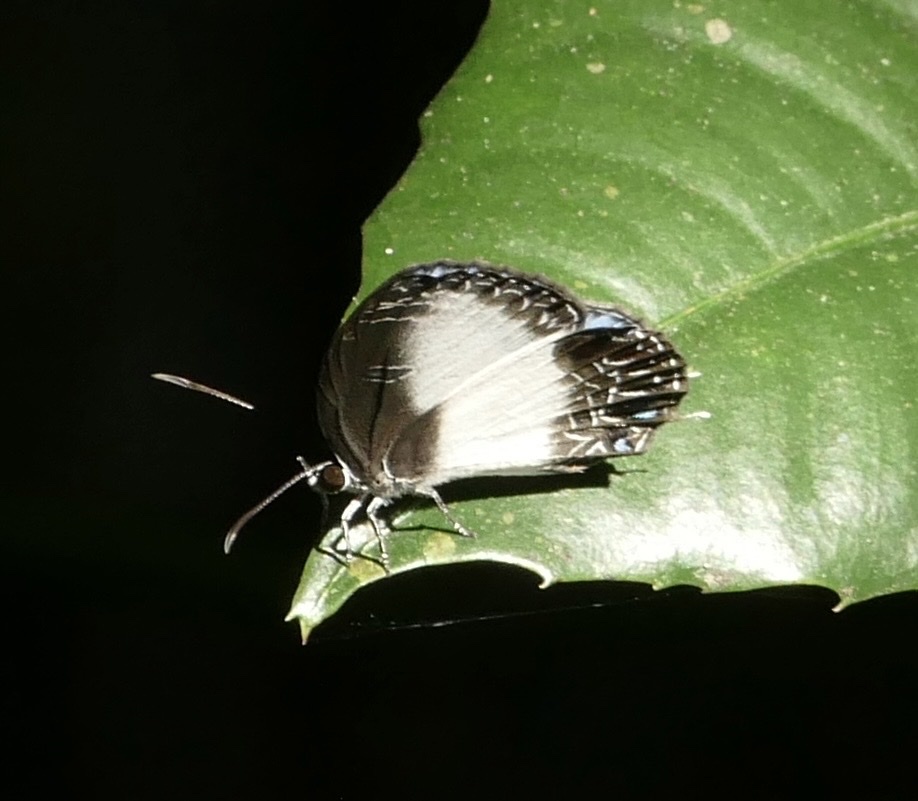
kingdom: Animalia
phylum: Arthropoda
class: Insecta
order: Lepidoptera
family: Lycaenidae
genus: Jamides
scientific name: Jamides cyta
